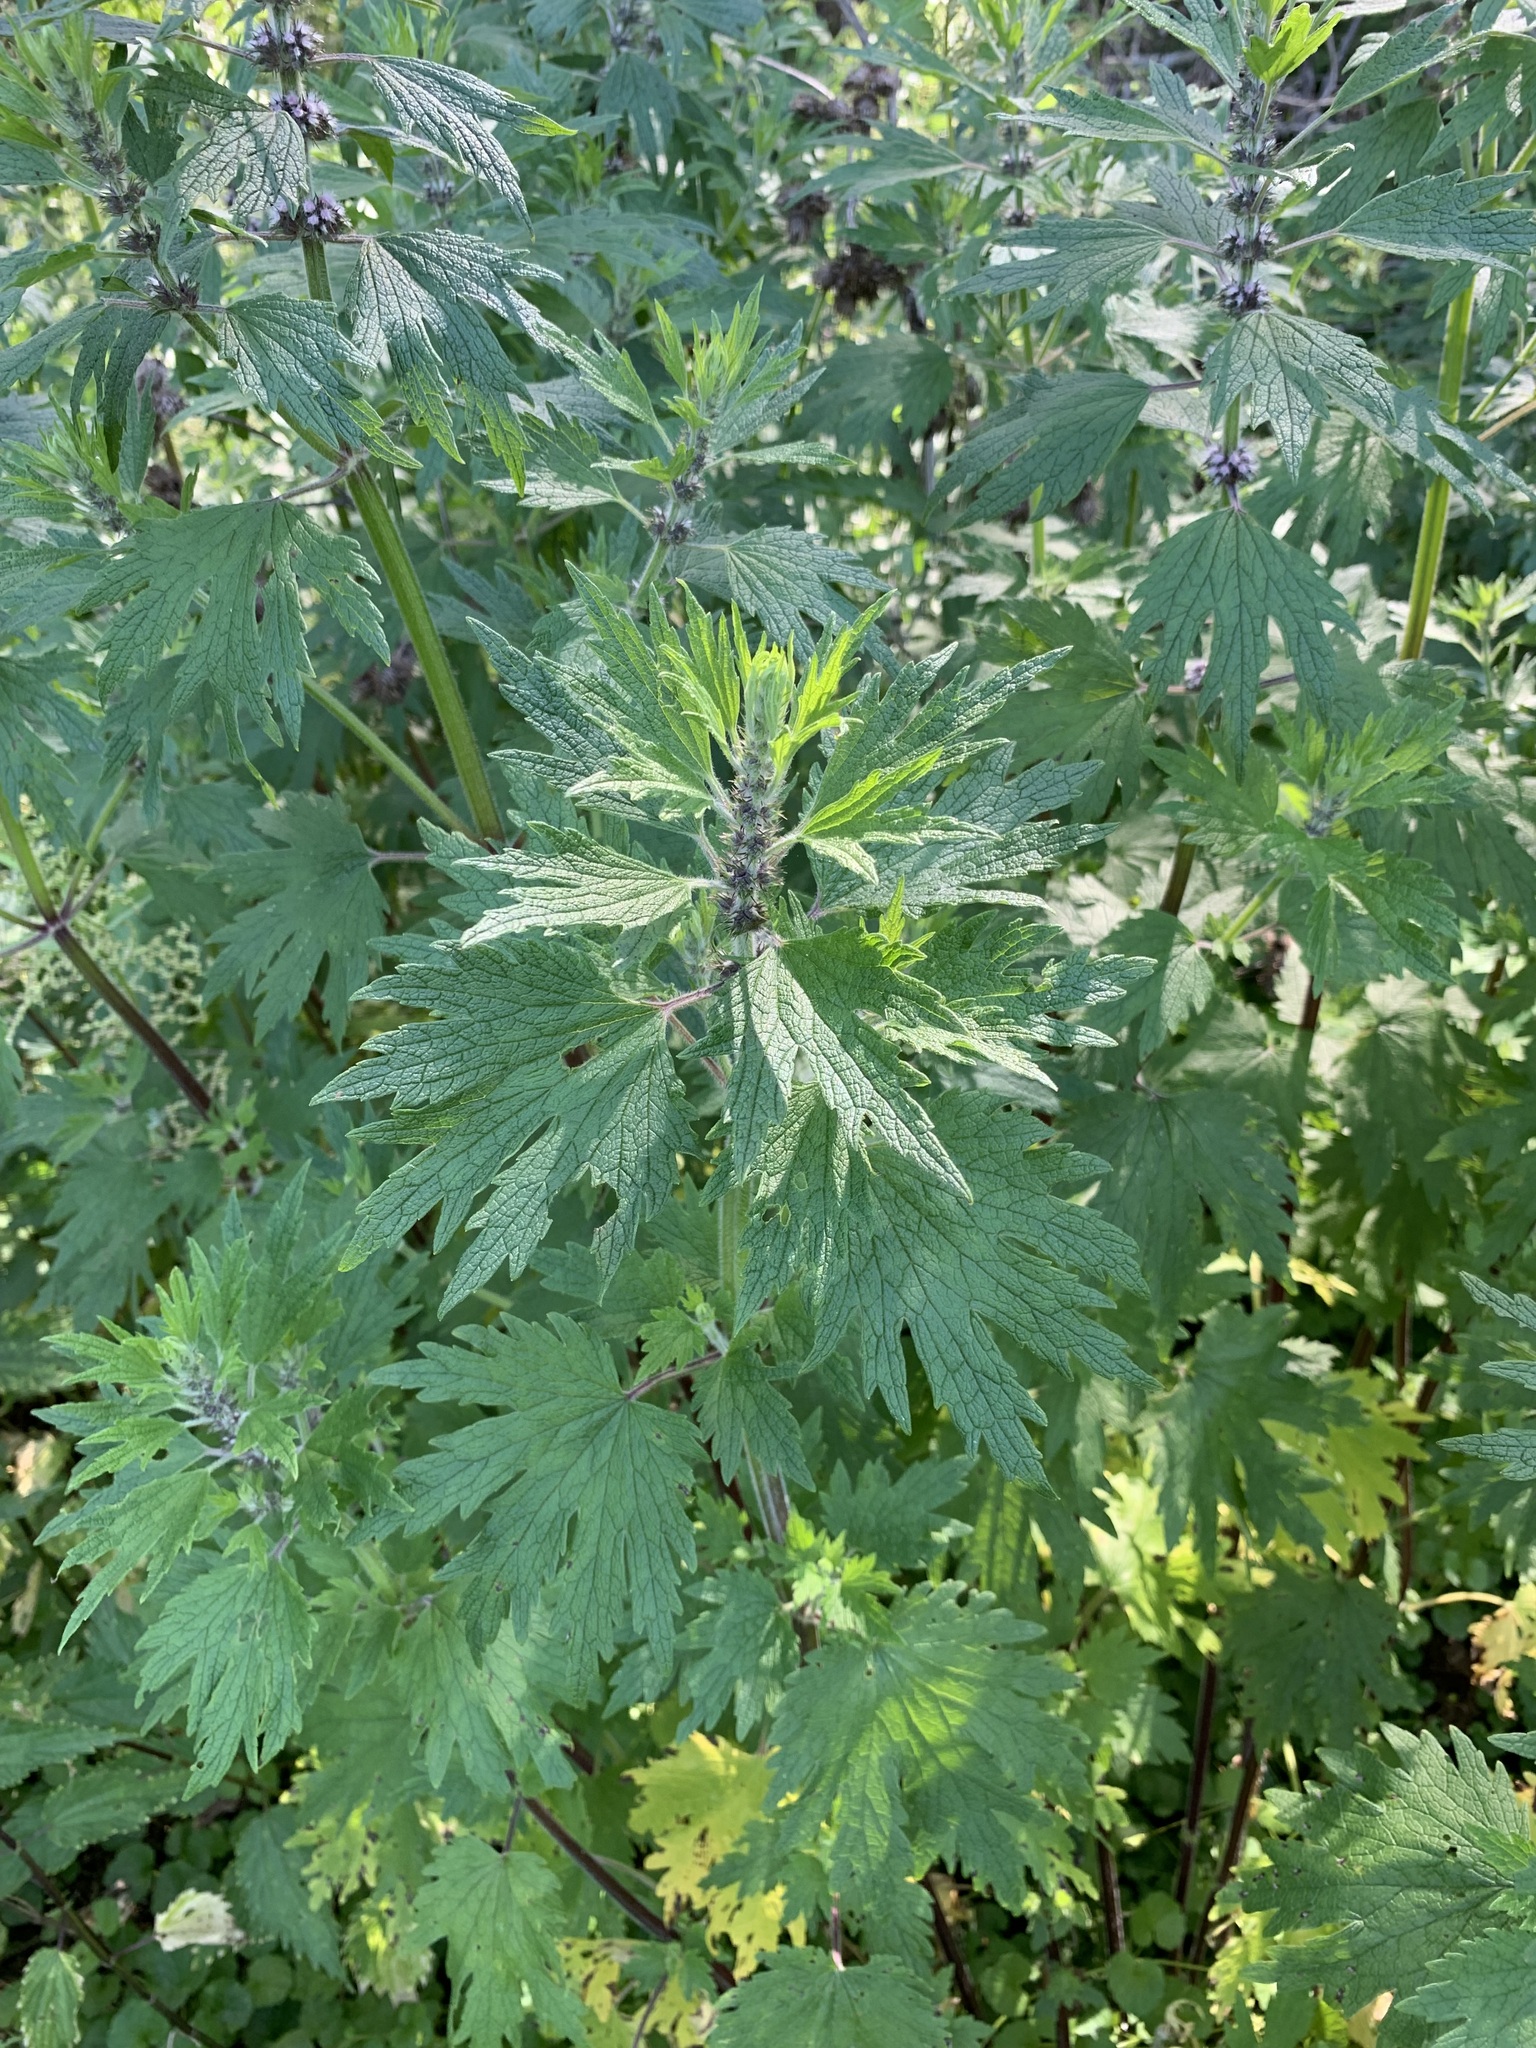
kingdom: Plantae
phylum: Tracheophyta
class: Magnoliopsida
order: Lamiales
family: Lamiaceae
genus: Leonurus
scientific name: Leonurus quinquelobatus
